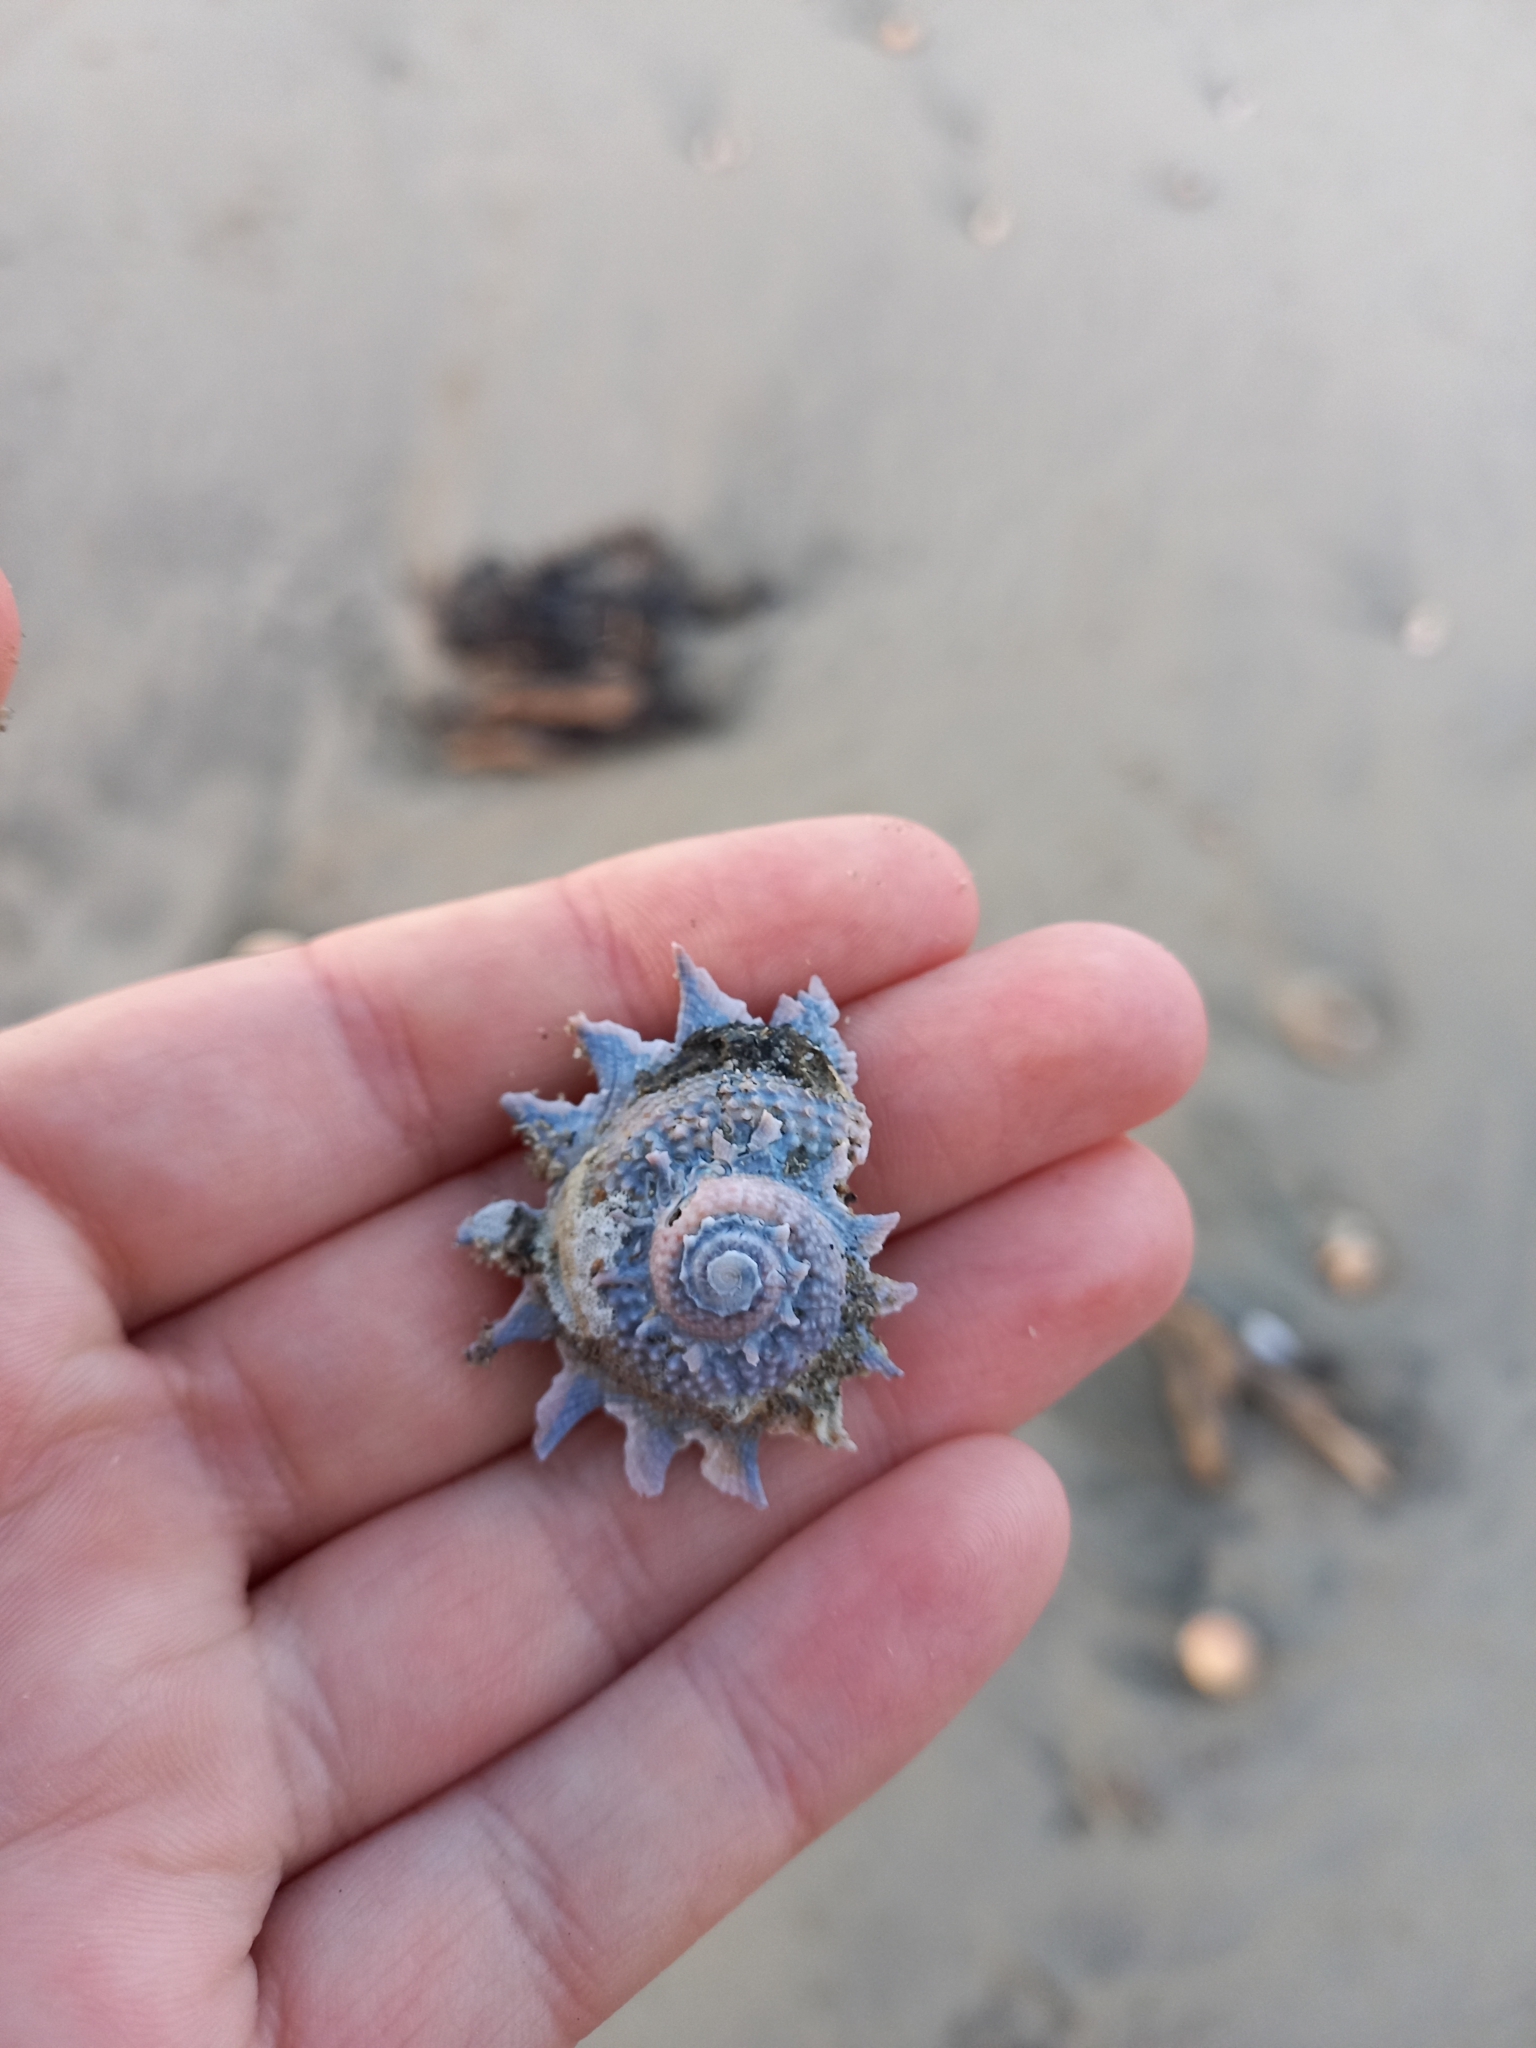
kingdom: Animalia
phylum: Mollusca
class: Gastropoda
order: Trochida
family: Turbinidae
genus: Astraea
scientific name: Astraea heliotropium
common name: Sun shell
